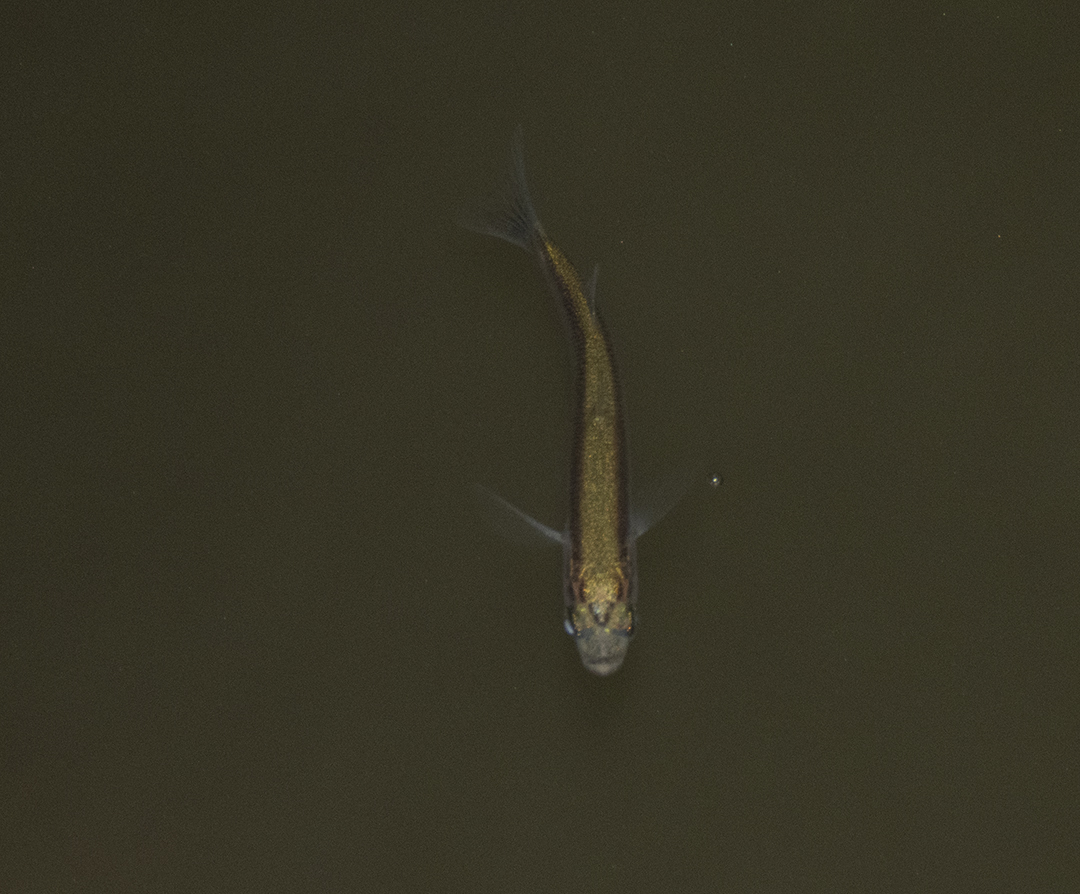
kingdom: Animalia
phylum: Chordata
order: Mugiliformes
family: Mugilidae
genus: Aldrichetta
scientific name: Aldrichetta forsteri
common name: Yellow-eye mullet
